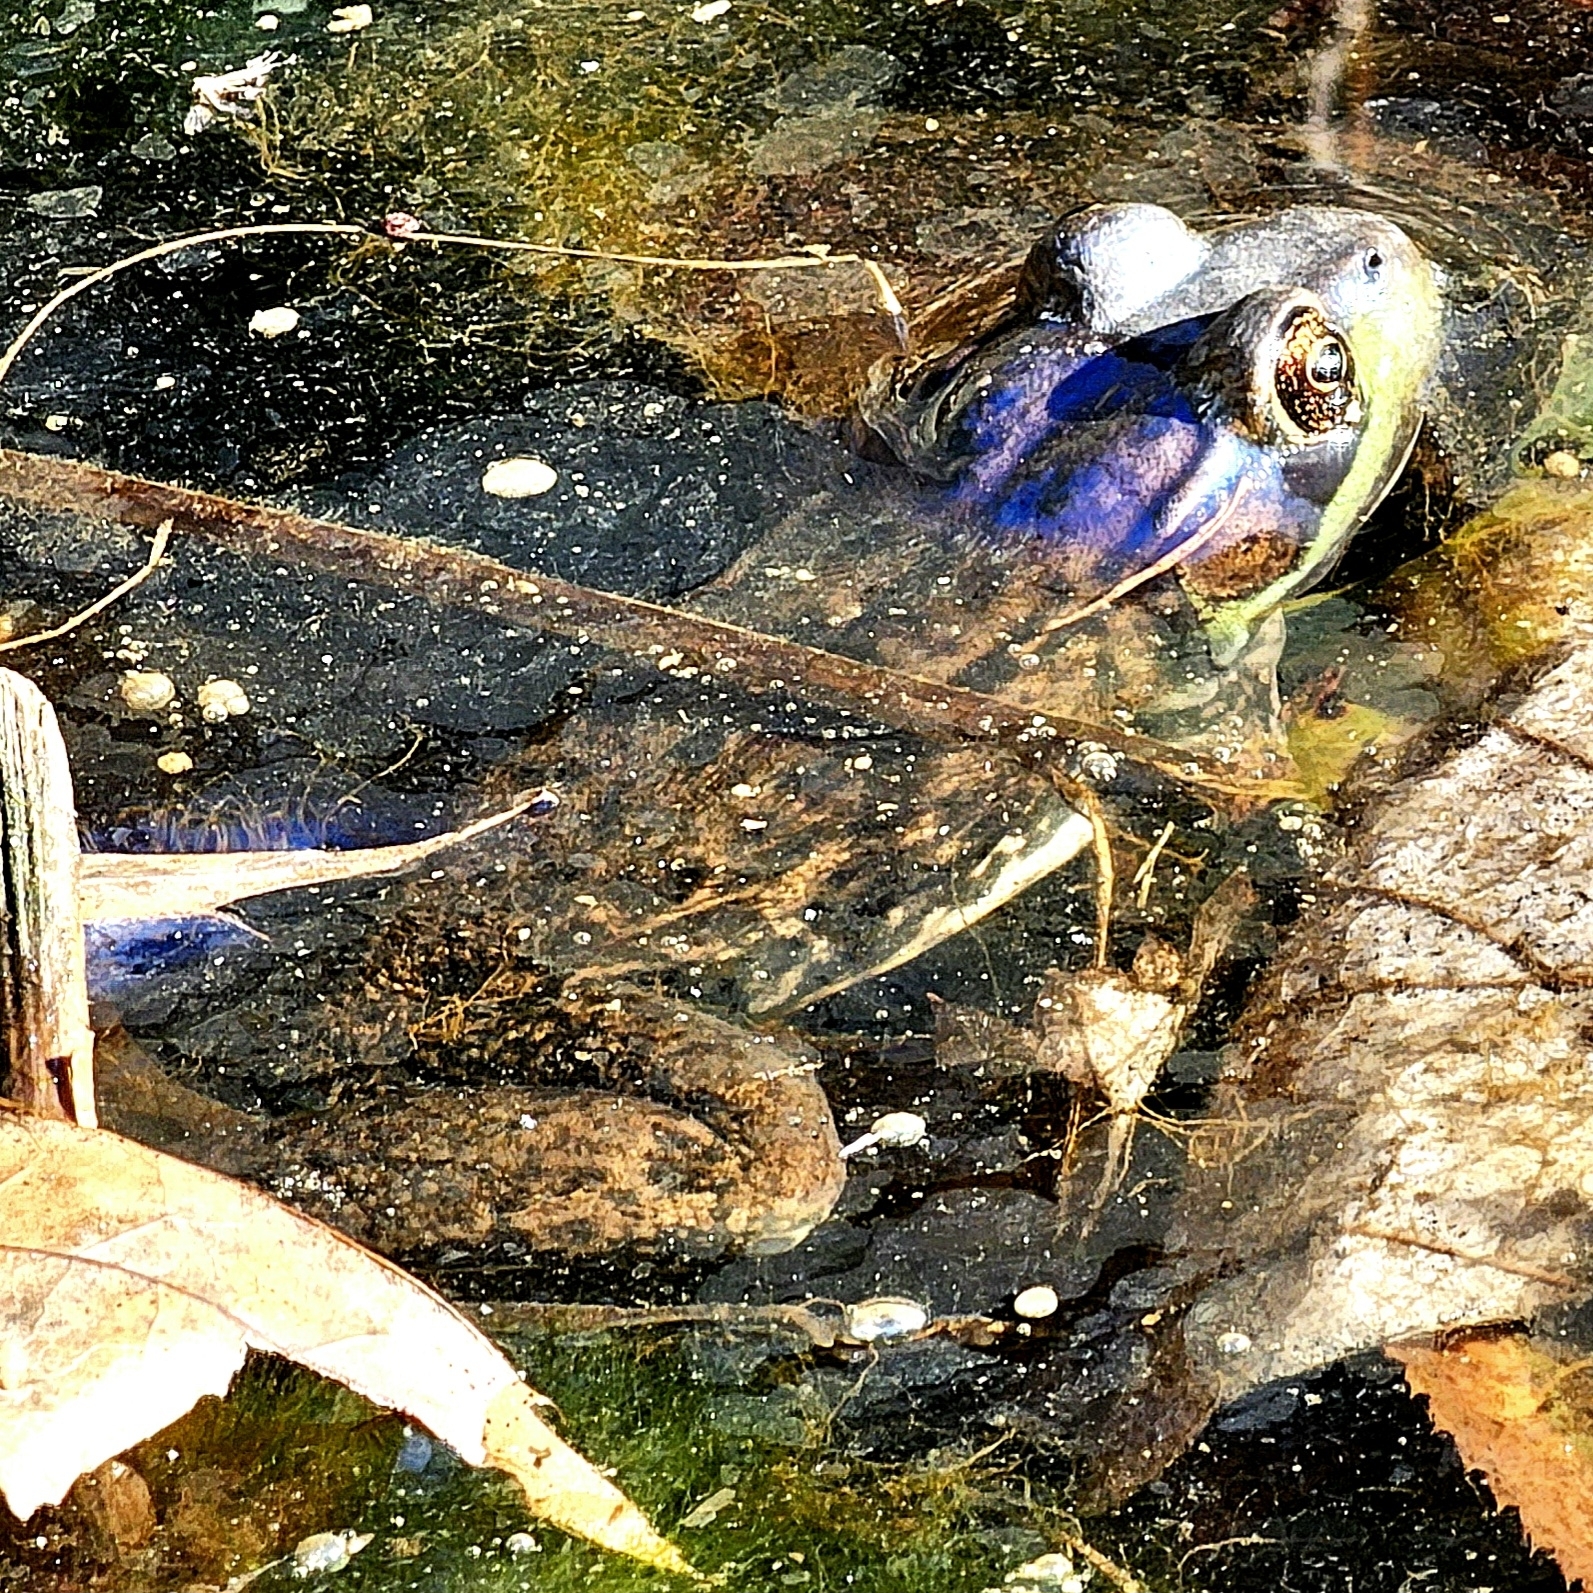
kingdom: Animalia
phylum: Chordata
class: Amphibia
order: Anura
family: Ranidae
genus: Lithobates
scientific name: Lithobates clamitans
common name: Green frog
